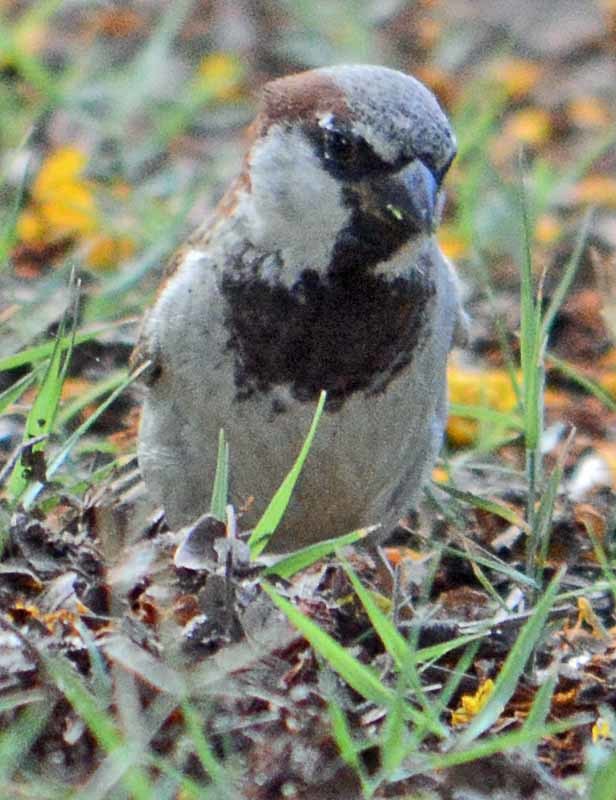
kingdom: Animalia
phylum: Chordata
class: Aves
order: Passeriformes
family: Passeridae
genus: Passer
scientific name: Passer domesticus
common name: House sparrow
